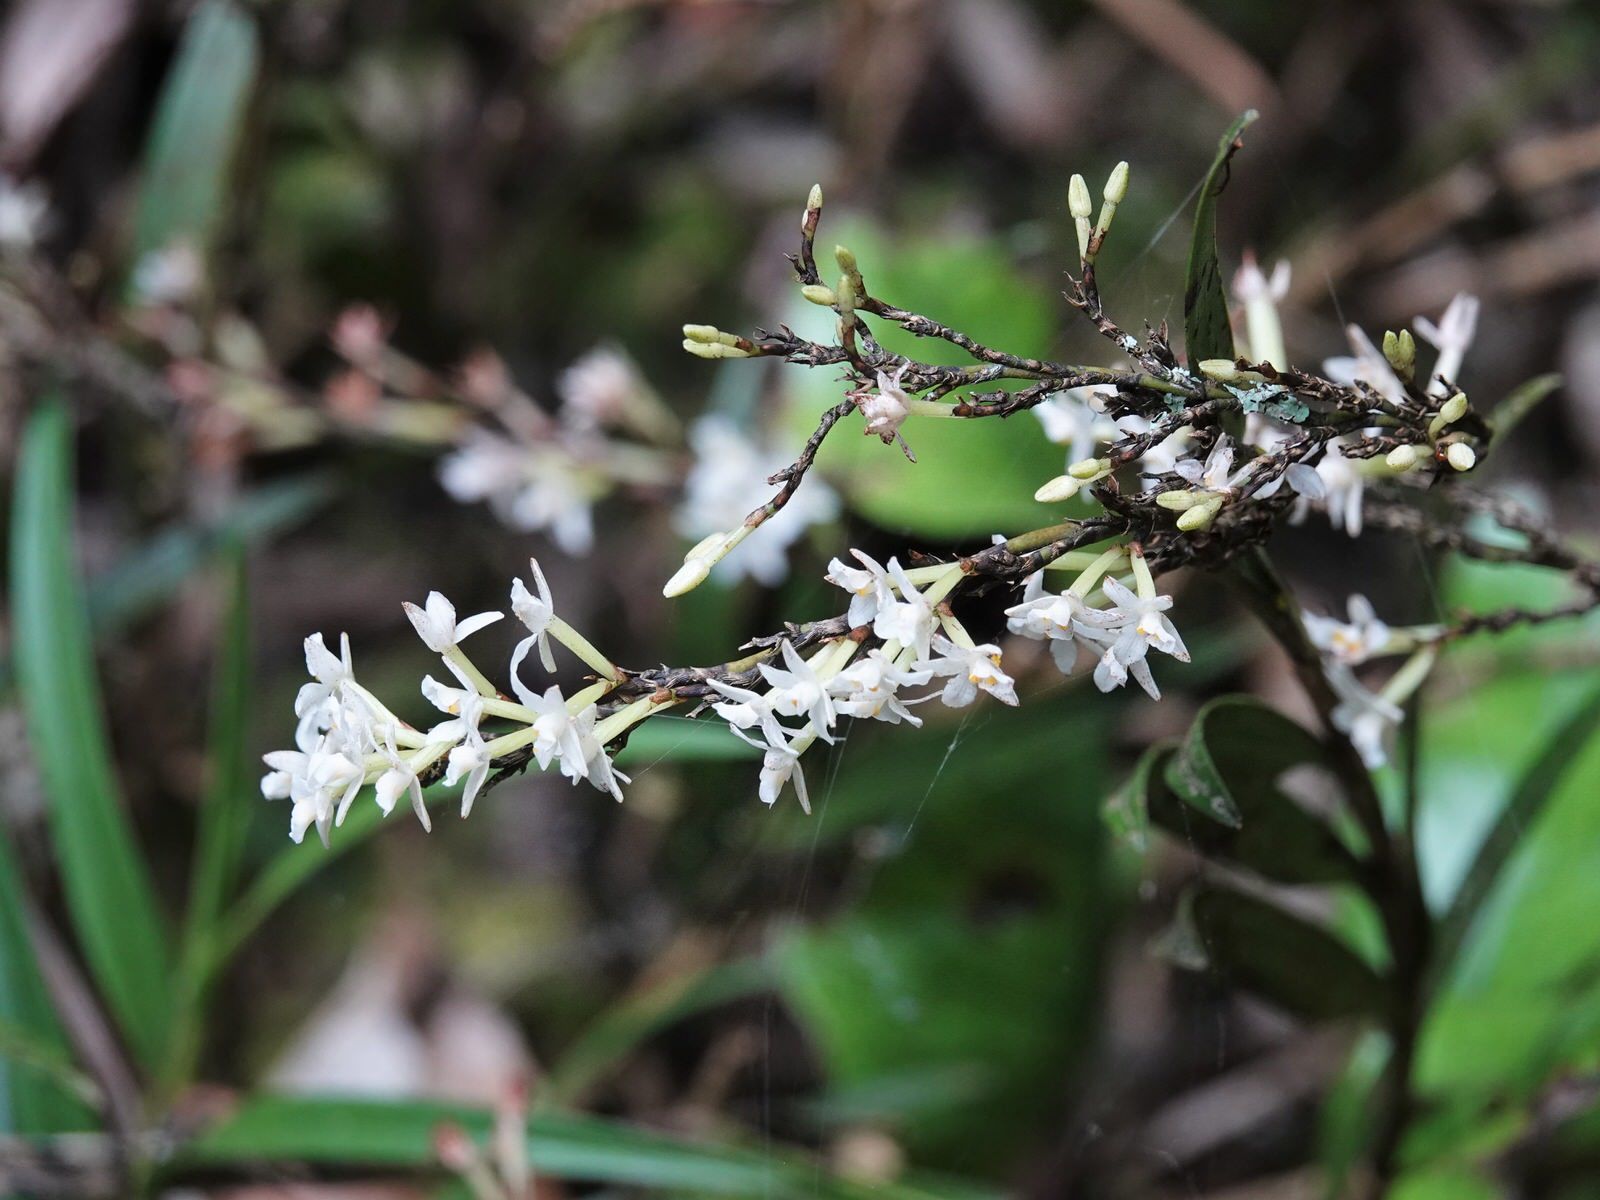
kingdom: Plantae
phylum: Tracheophyta
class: Liliopsida
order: Asparagales
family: Orchidaceae
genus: Earina
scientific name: Earina autumnalis
